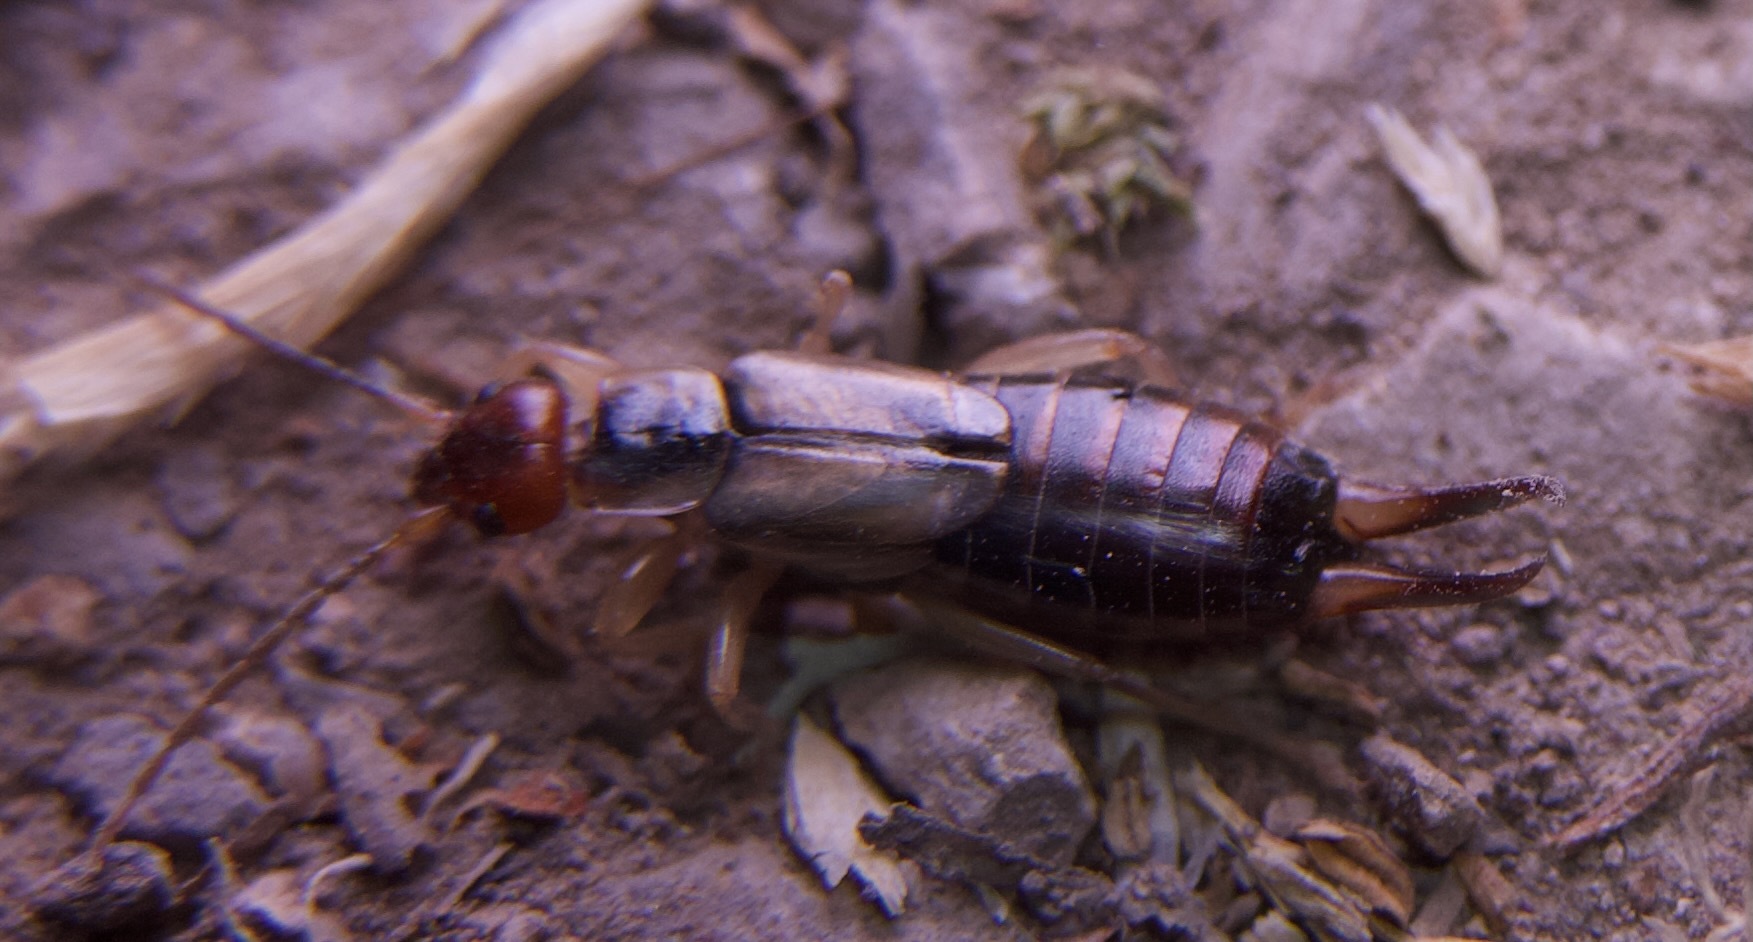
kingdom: Animalia
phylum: Arthropoda
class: Insecta
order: Dermaptera
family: Forficulidae
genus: Forficula
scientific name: Forficula dentata
